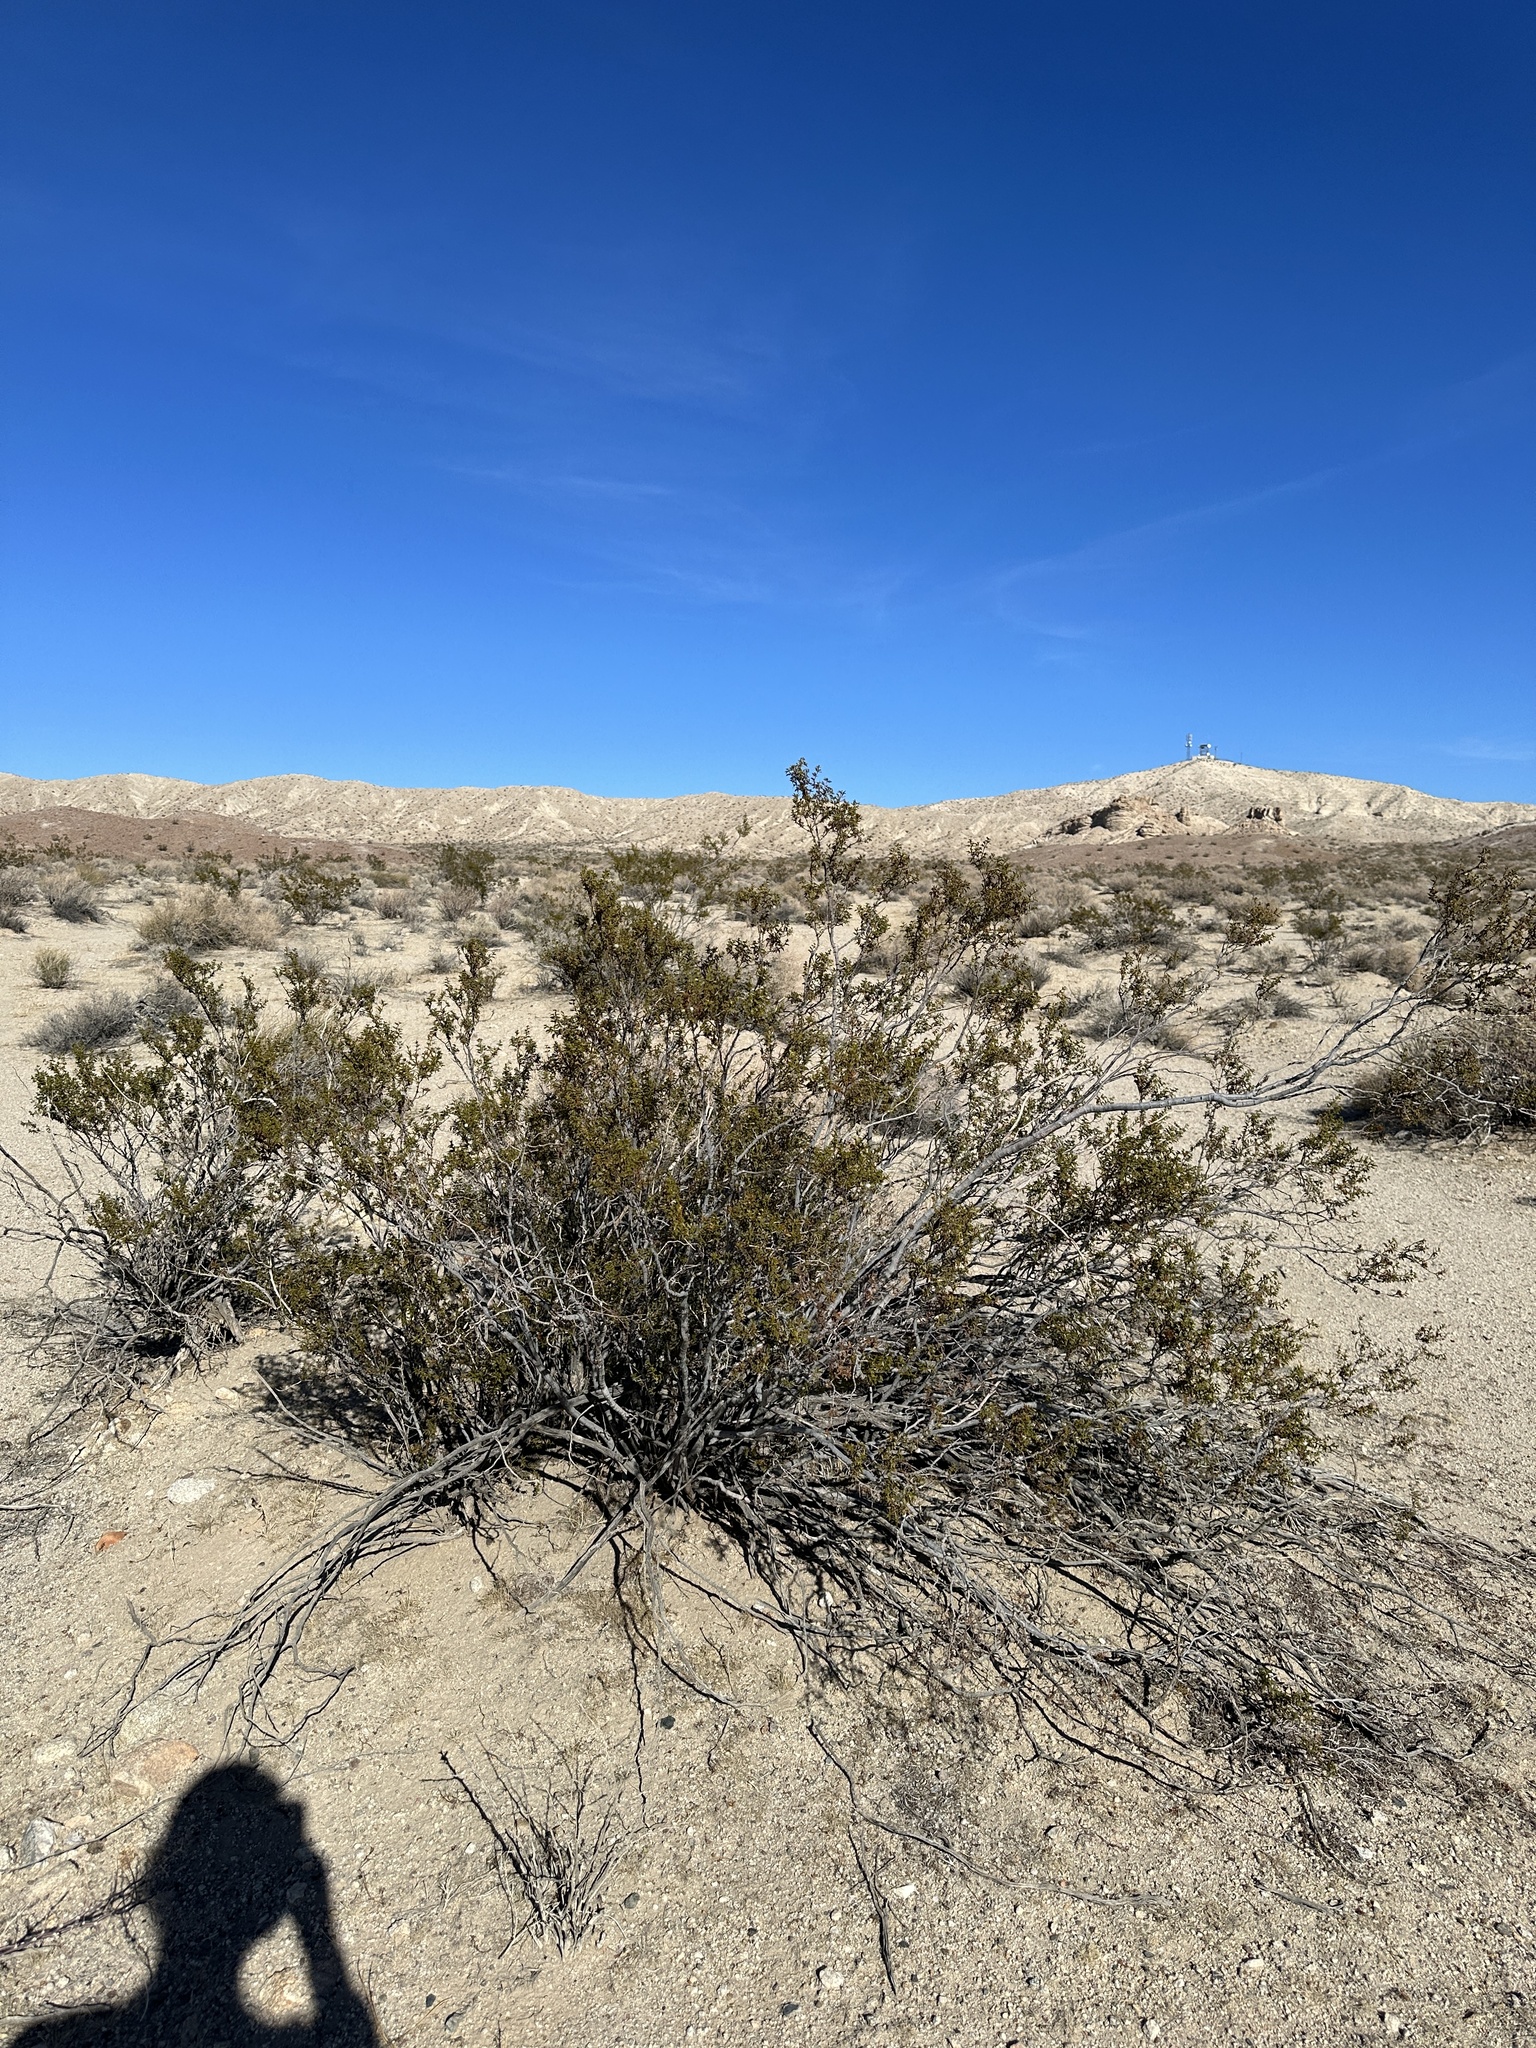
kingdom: Plantae
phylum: Tracheophyta
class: Magnoliopsida
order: Zygophyllales
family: Zygophyllaceae
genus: Larrea
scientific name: Larrea tridentata
